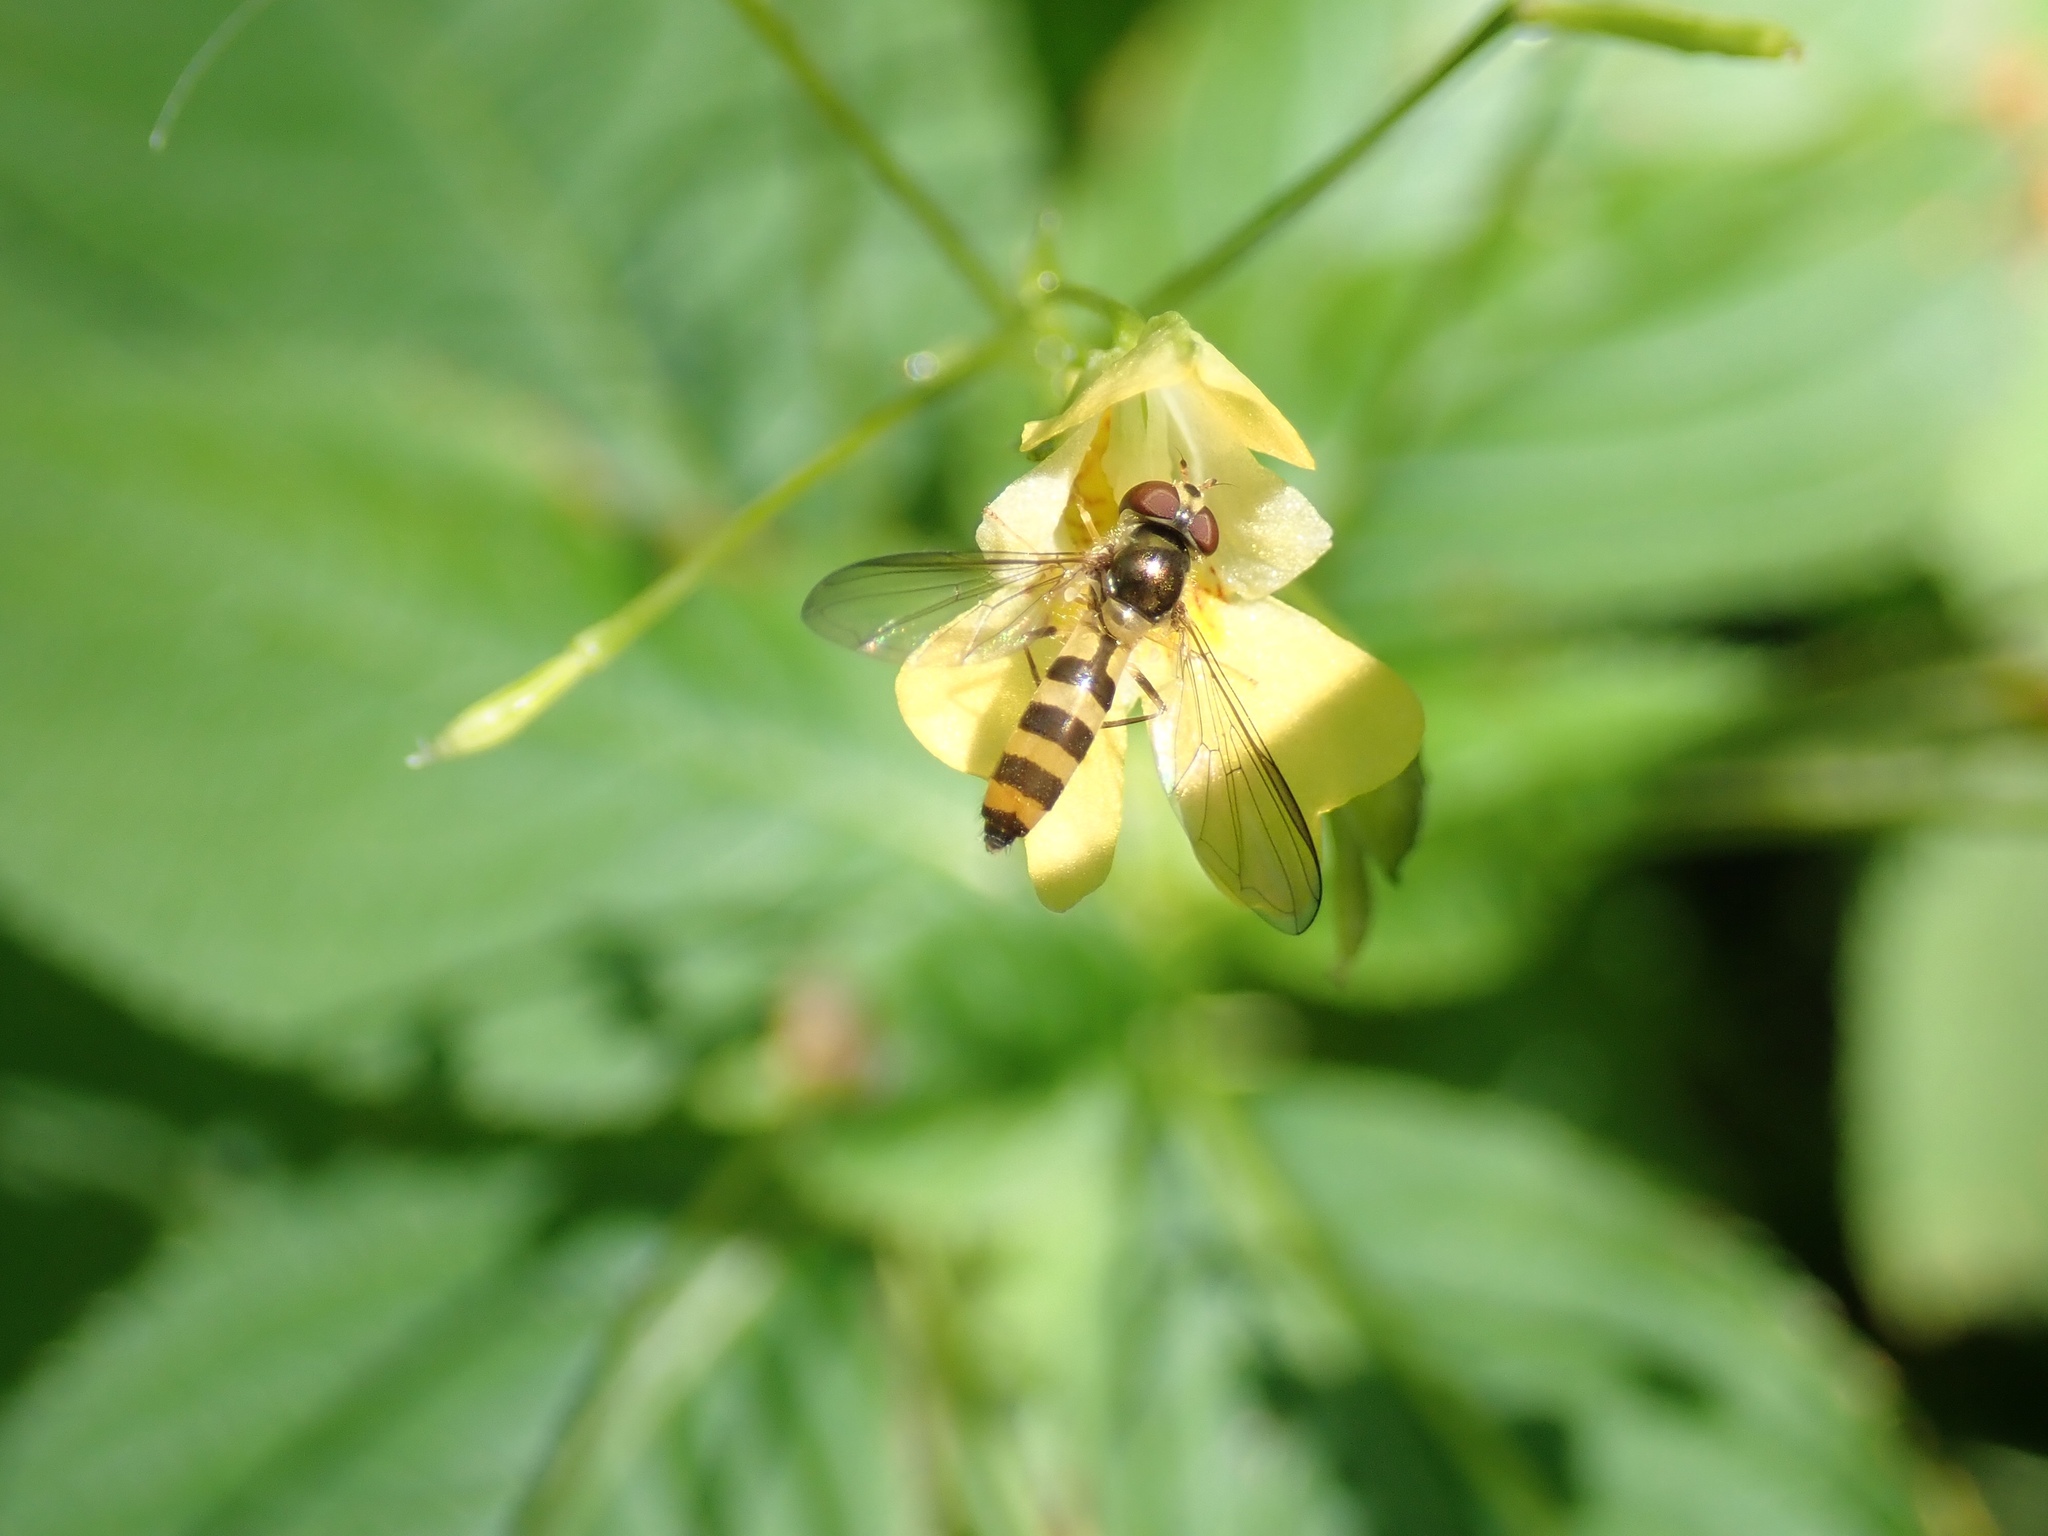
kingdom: Animalia
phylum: Arthropoda
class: Insecta
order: Diptera
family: Syrphidae
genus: Meliscaeva
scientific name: Meliscaeva cinctella
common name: American thintail fly
